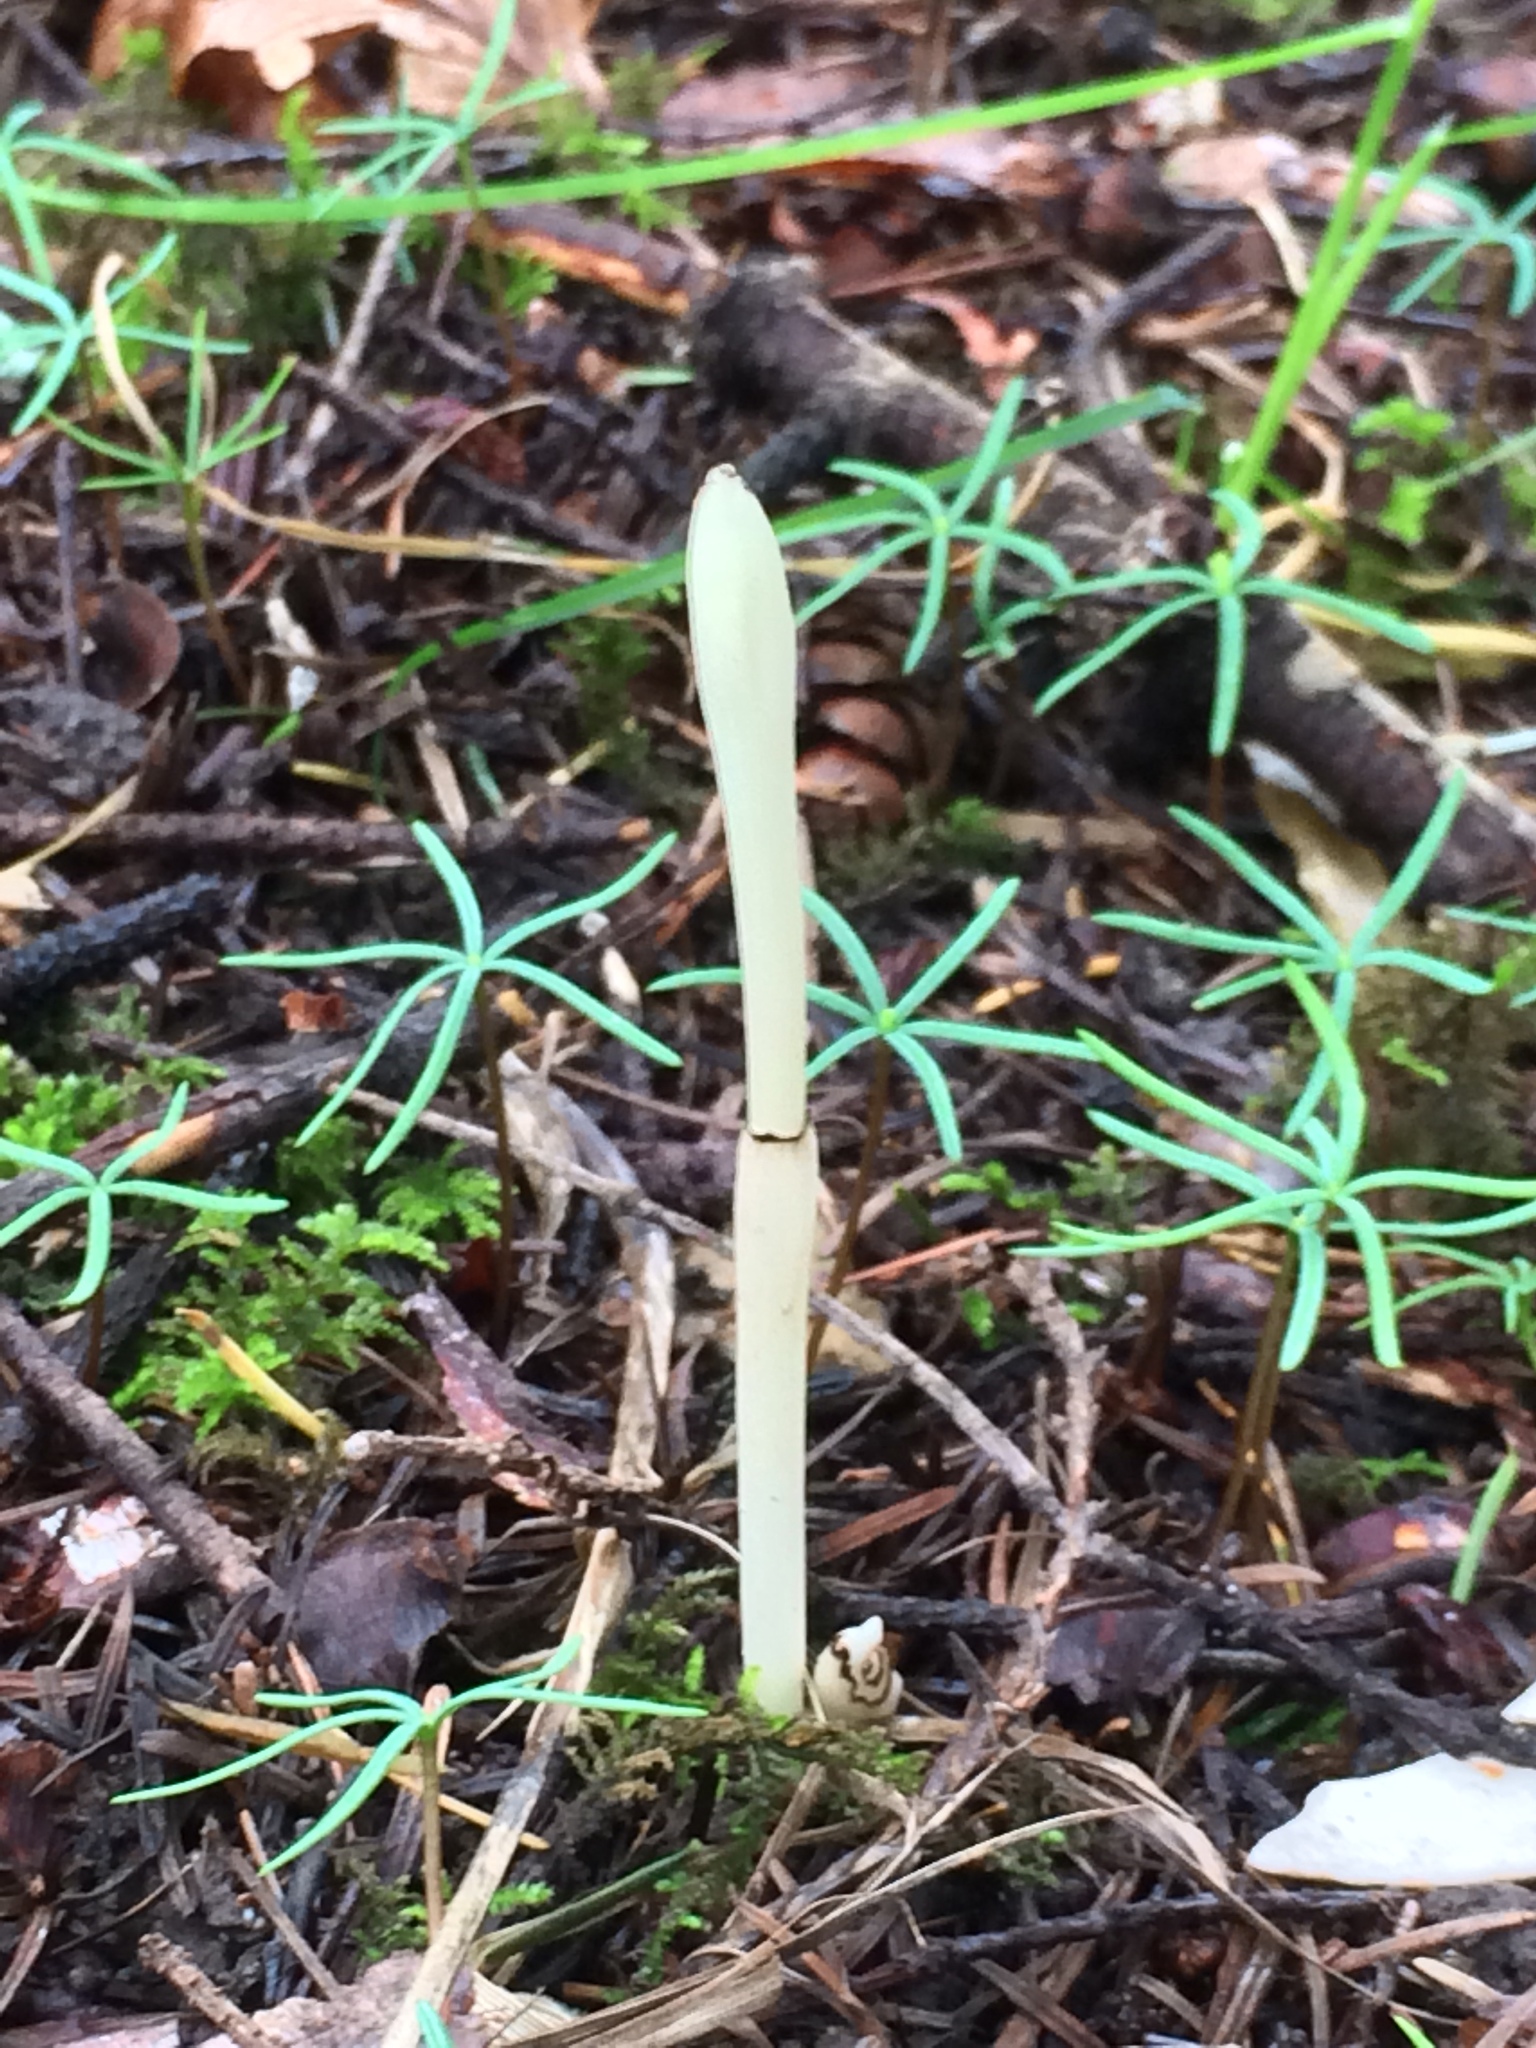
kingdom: Plantae
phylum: Tracheophyta
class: Liliopsida
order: Asparagales
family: Orchidaceae
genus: Cephalanthera
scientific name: Cephalanthera austiniae
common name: Phantom orchid
